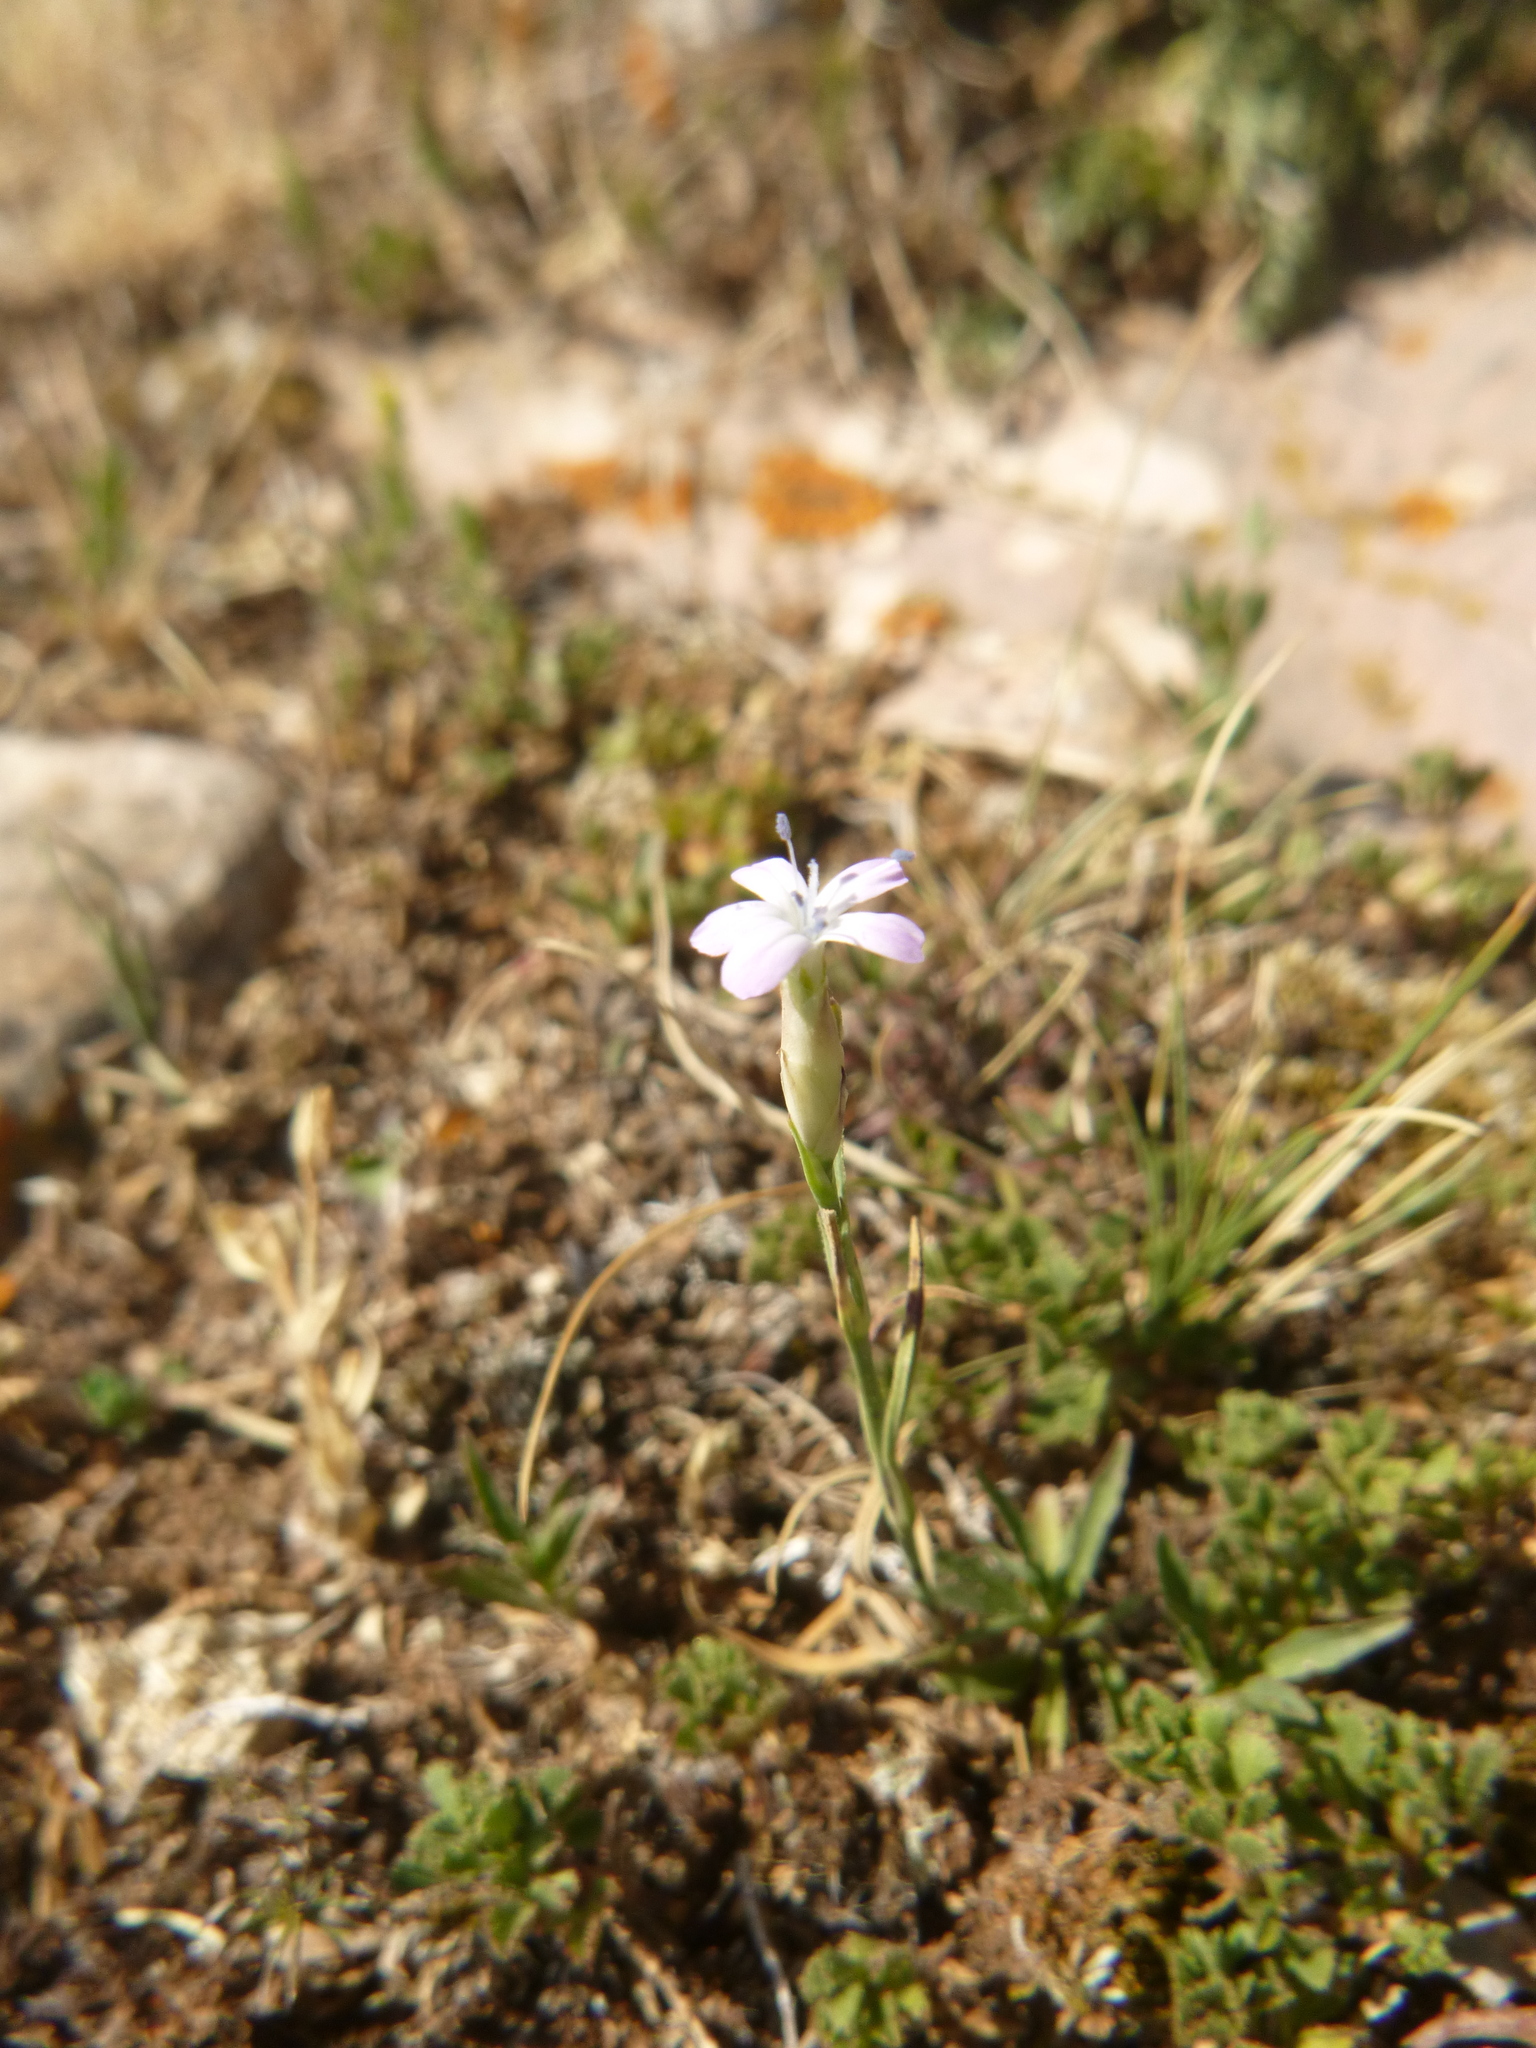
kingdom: Plantae
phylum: Tracheophyta
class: Magnoliopsida
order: Caryophyllales
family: Caryophyllaceae
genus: Petrorhagia
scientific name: Petrorhagia prolifera
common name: Proliferous pink
